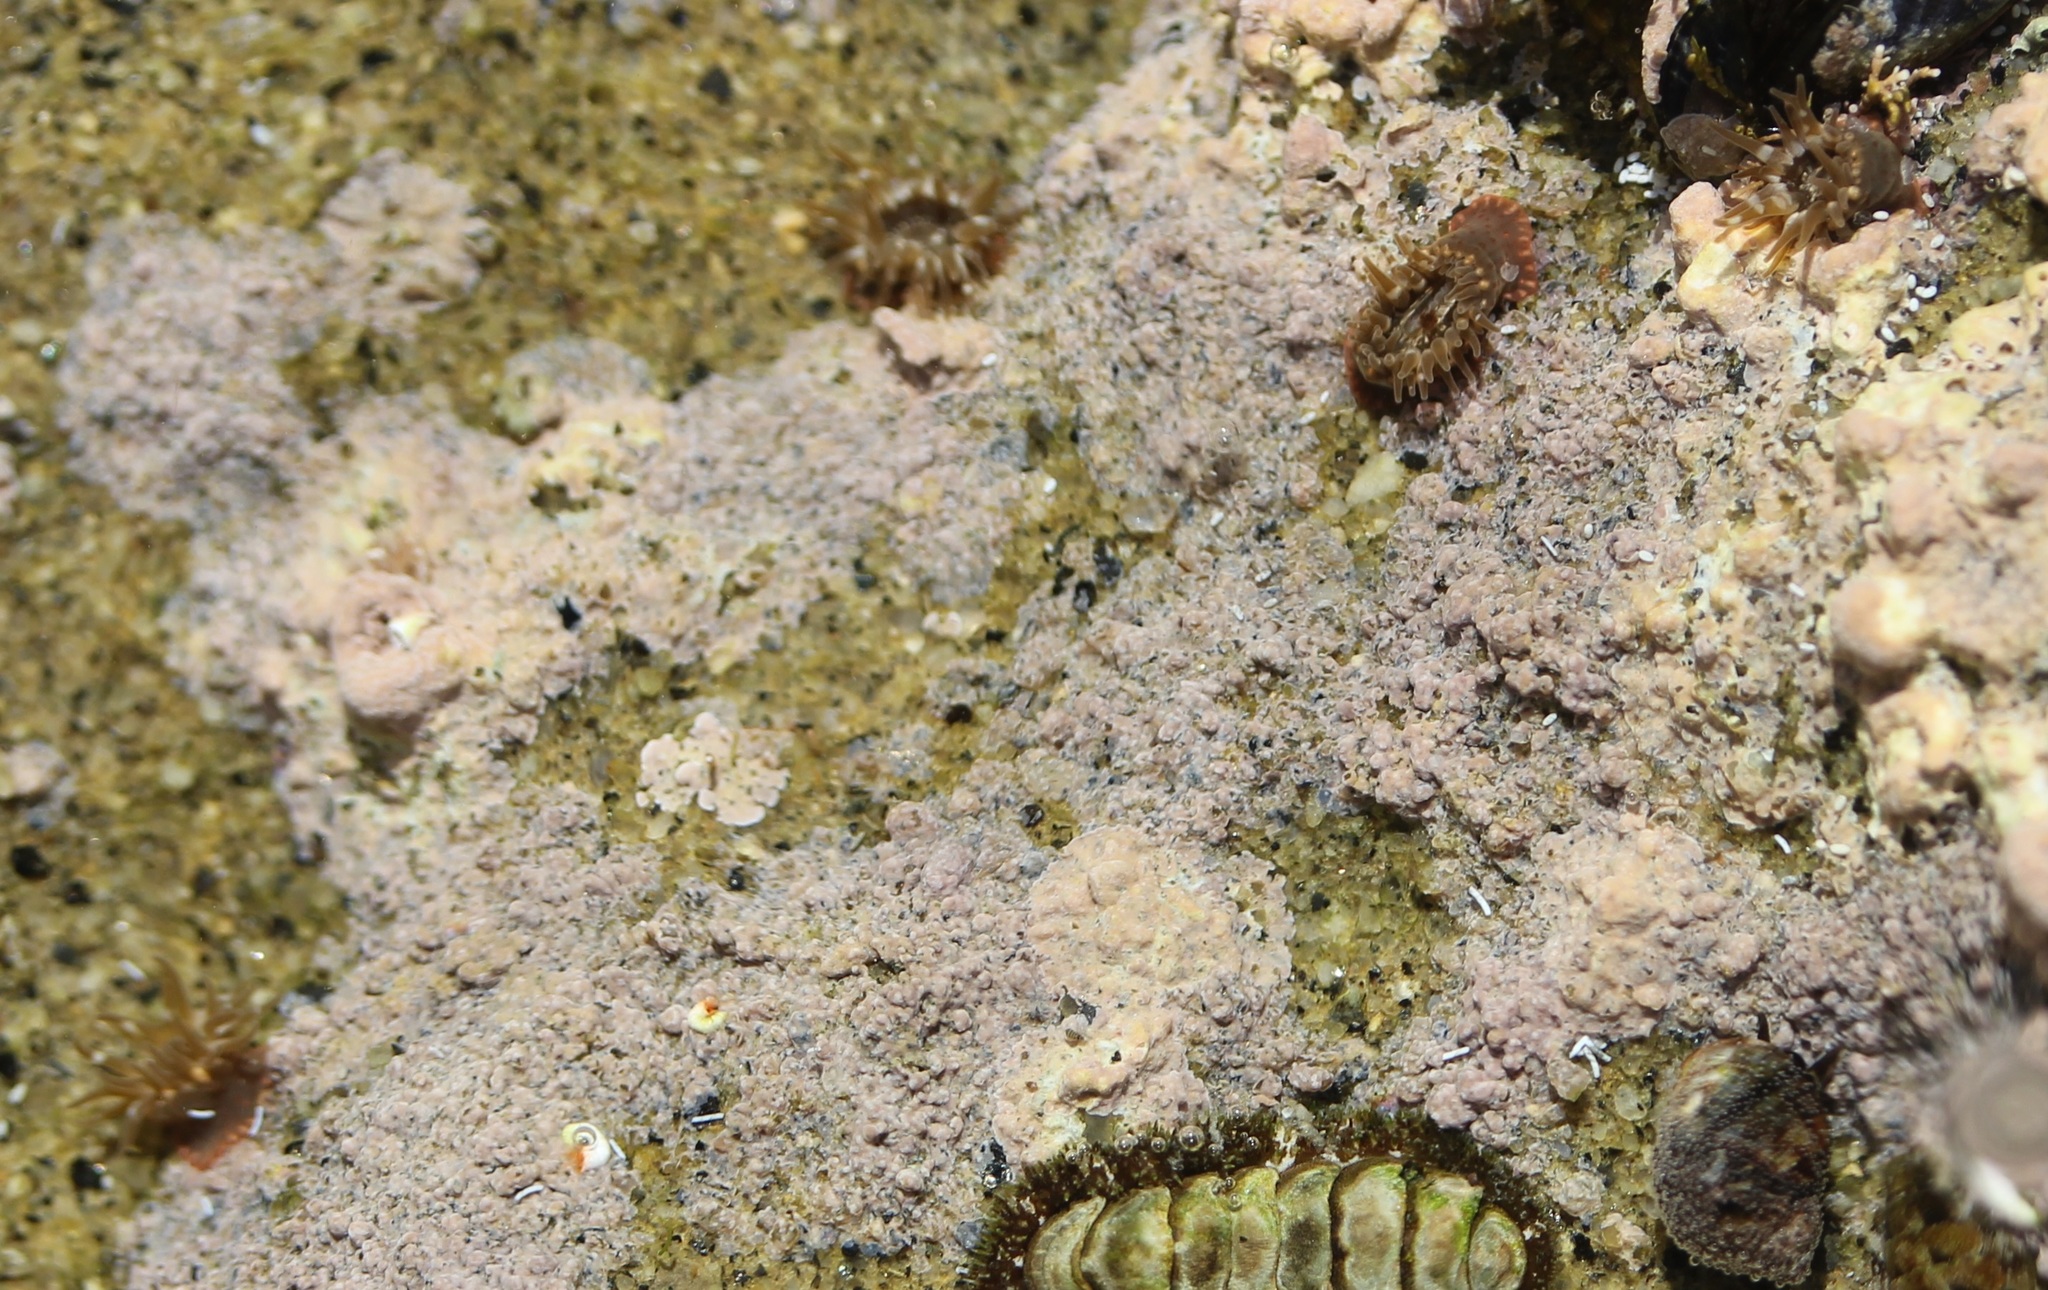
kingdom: Animalia
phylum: Cnidaria
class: Anthozoa
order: Actiniaria
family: Actiniidae
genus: Anthopleura
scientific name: Anthopleura mariae
